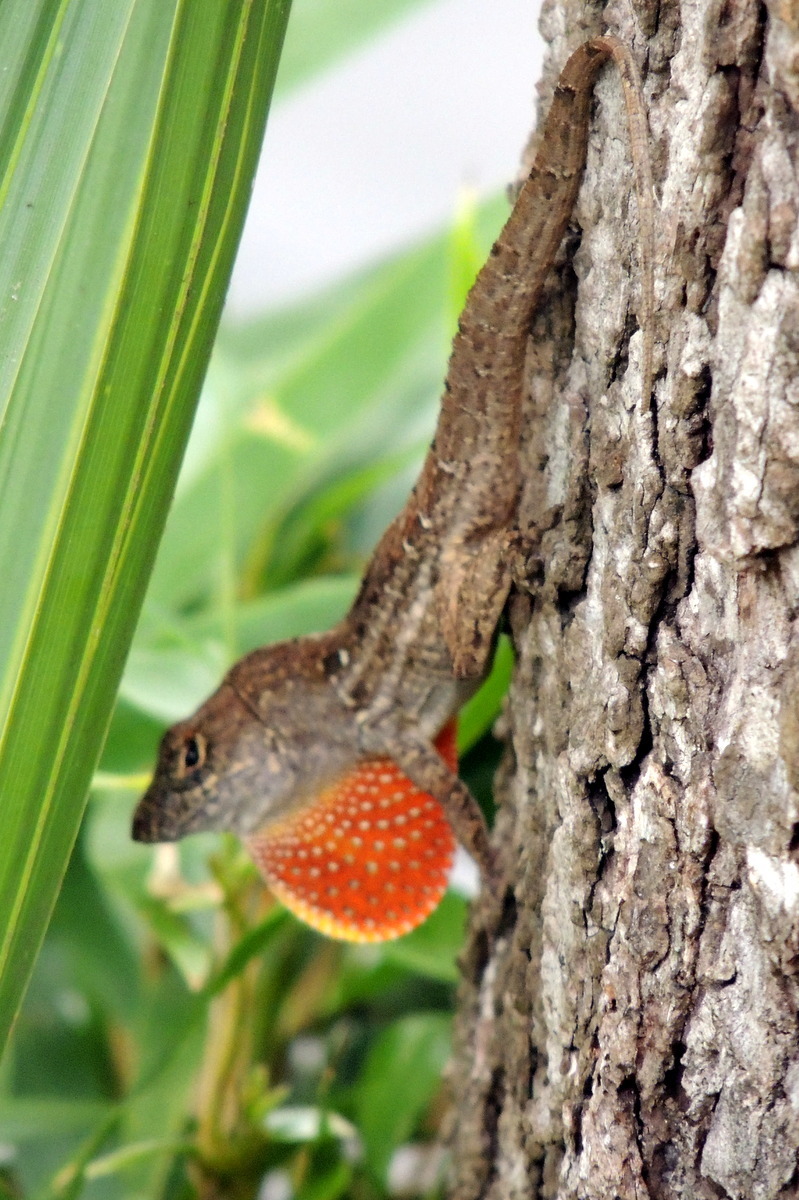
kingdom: Animalia
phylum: Chordata
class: Squamata
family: Dactyloidae
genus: Anolis
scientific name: Anolis sagrei
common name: Brown anole
